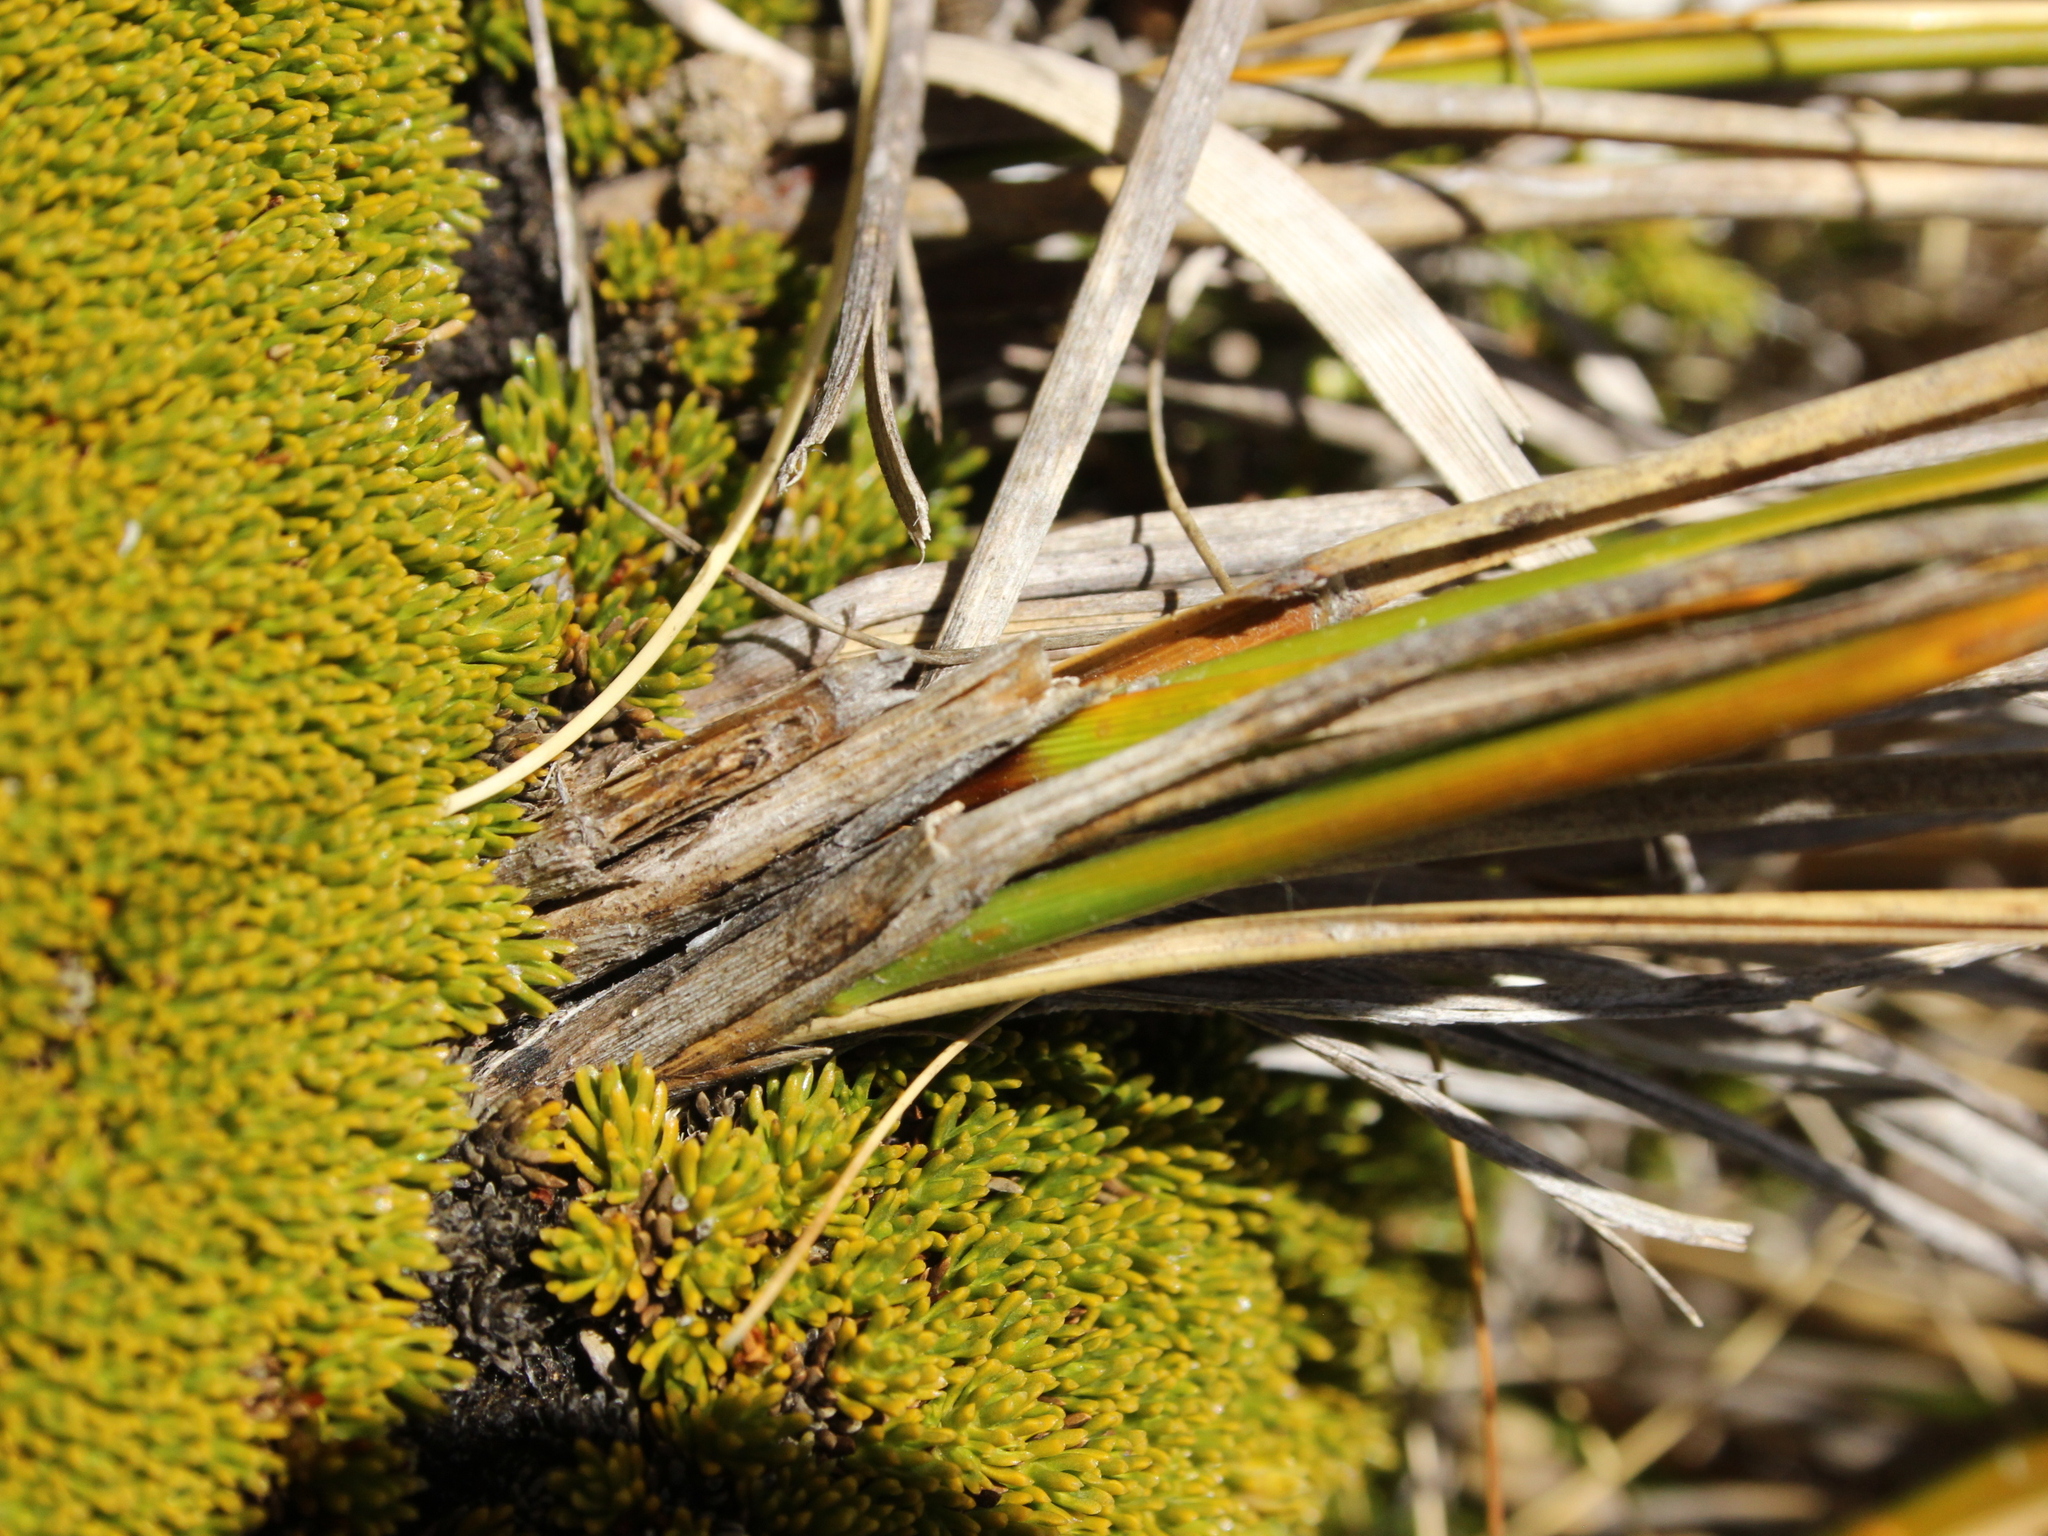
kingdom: Plantae
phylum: Tracheophyta
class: Liliopsida
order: Poales
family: Poaceae
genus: Chionochloa
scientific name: Chionochloa rigida
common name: Narrow leaved snow tussock
